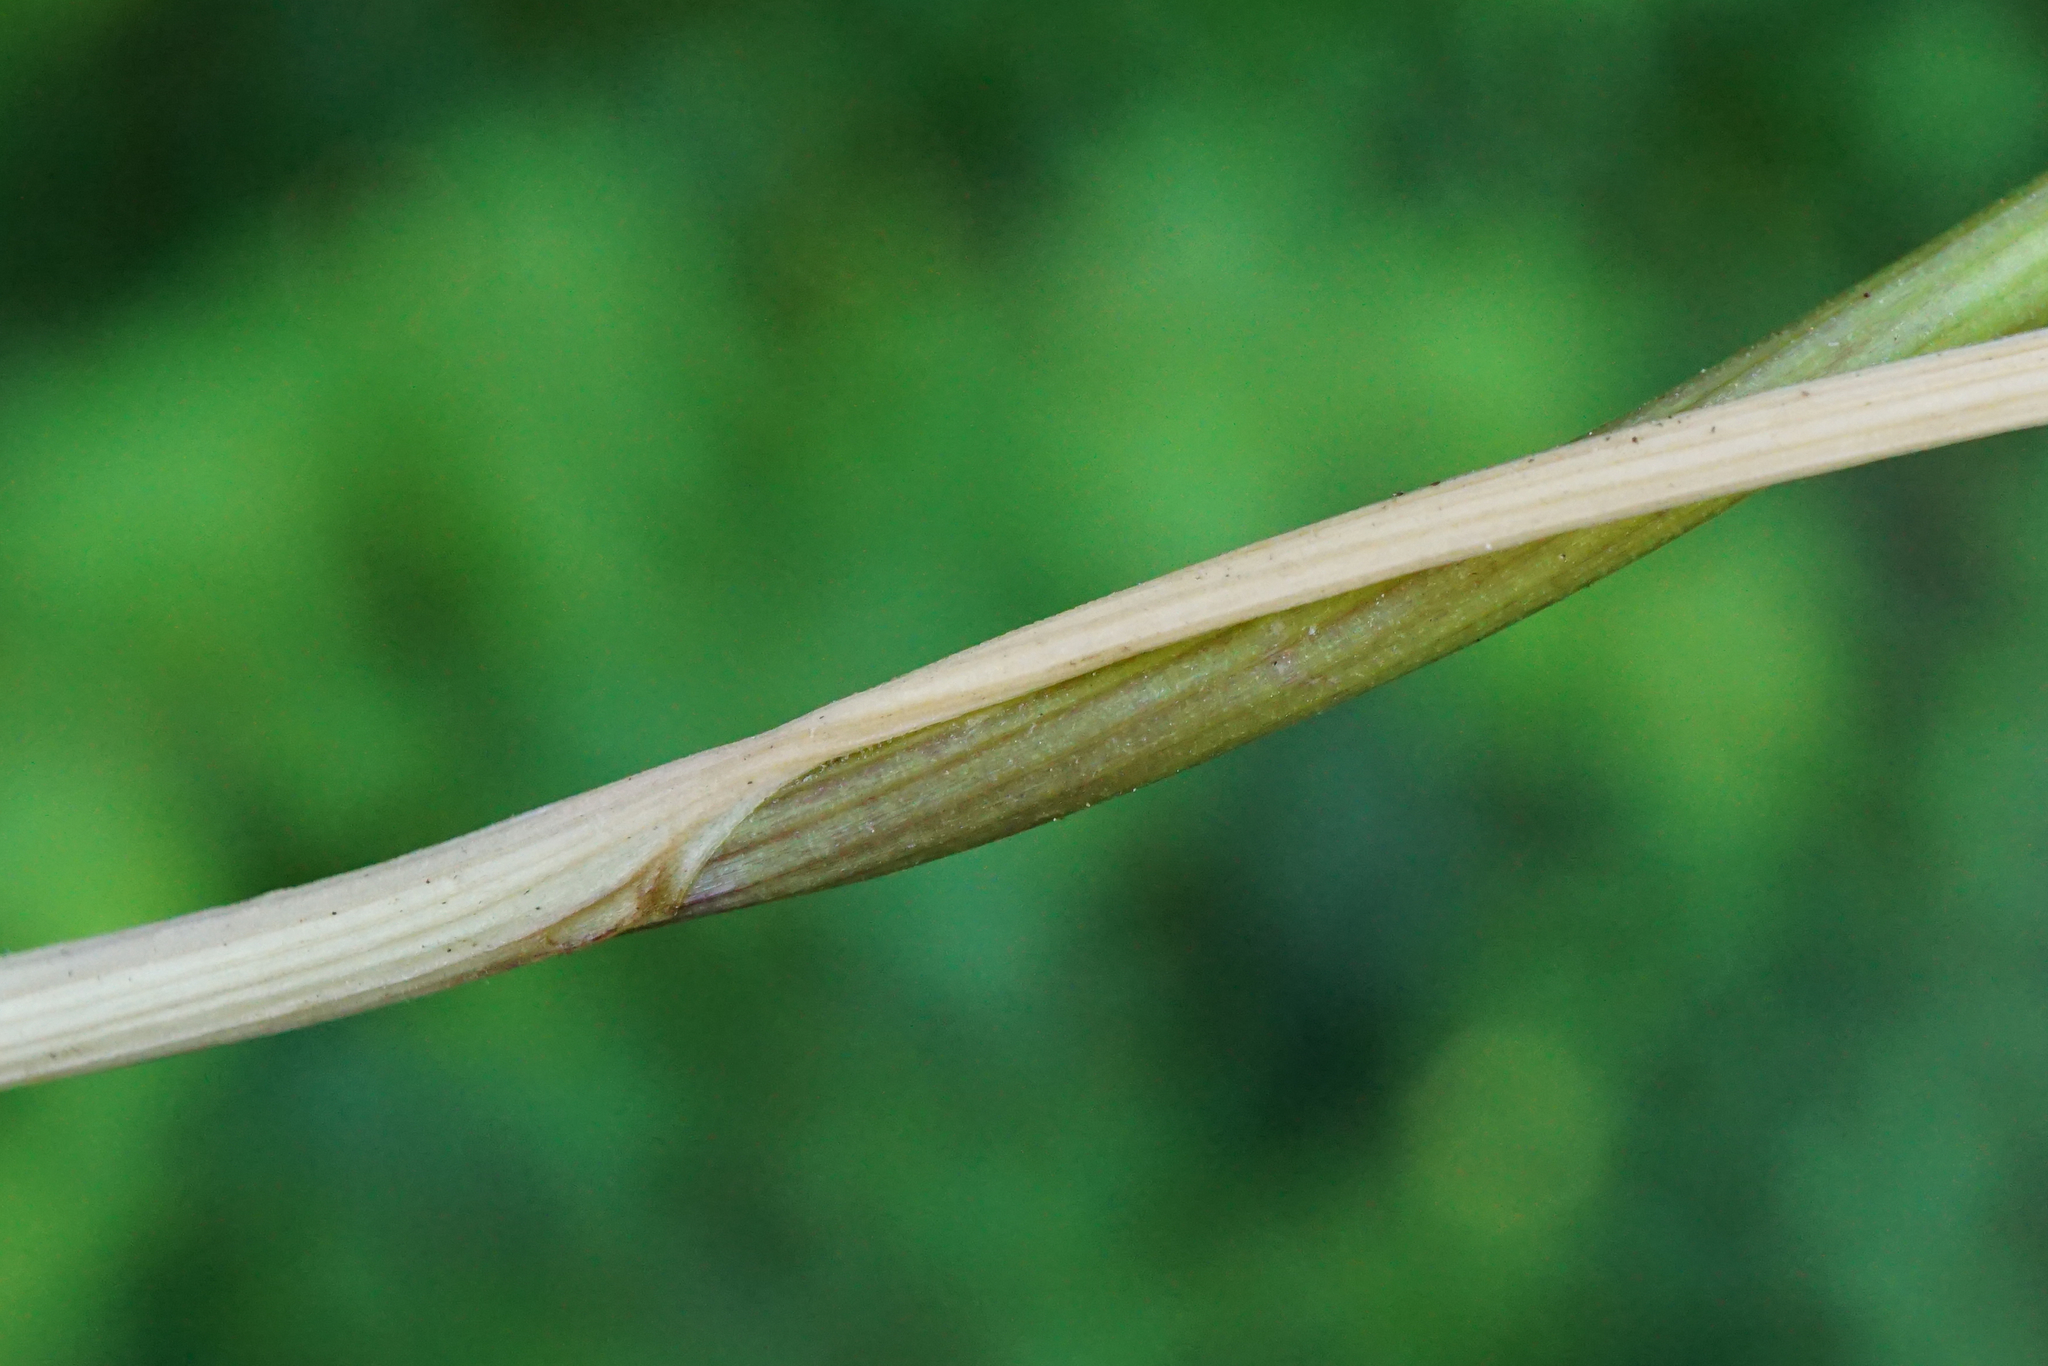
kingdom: Plantae
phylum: Tracheophyta
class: Liliopsida
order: Asparagales
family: Amaryllidaceae
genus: Allium
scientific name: Allium oleraceum
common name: Field garlic
